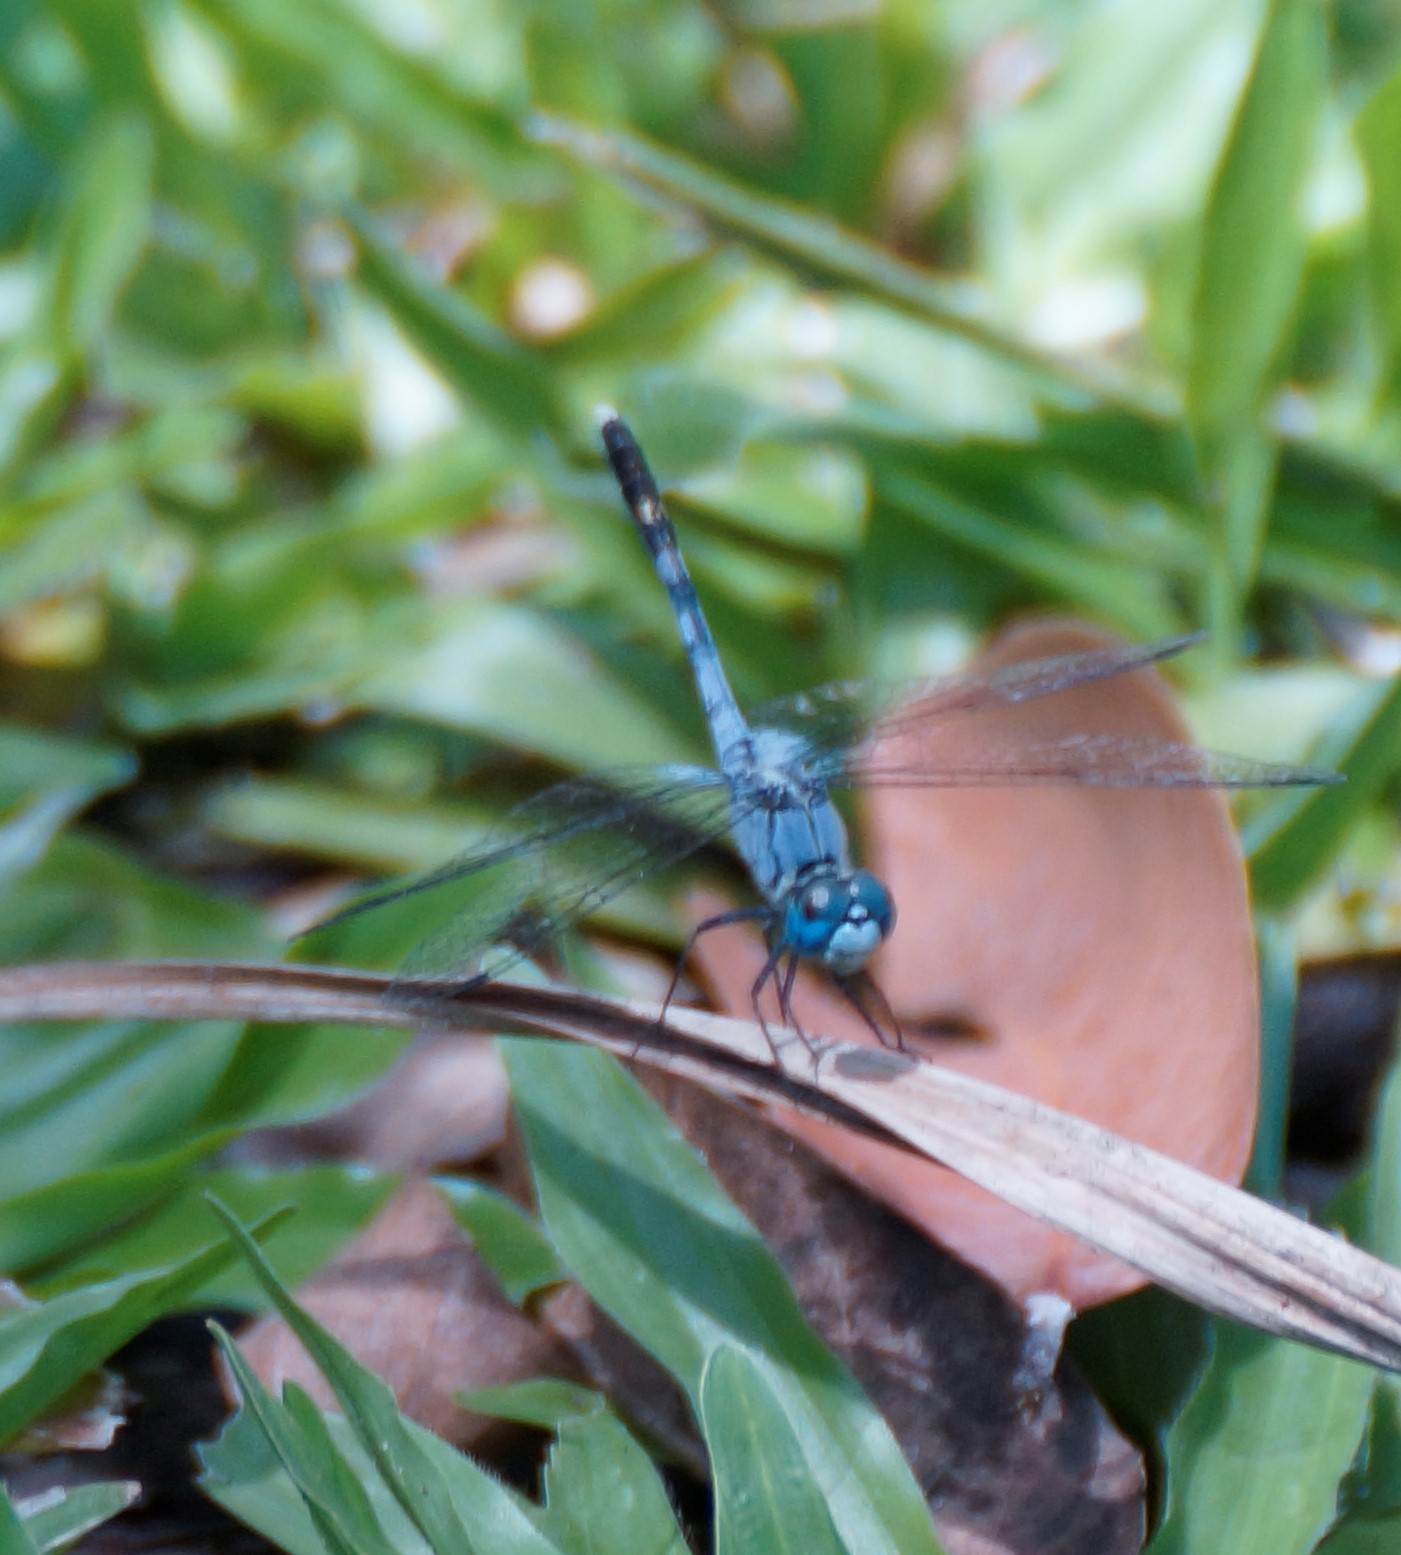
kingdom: Animalia
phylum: Arthropoda
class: Insecta
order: Odonata
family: Libellulidae
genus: Diplacodes
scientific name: Diplacodes trivialis
